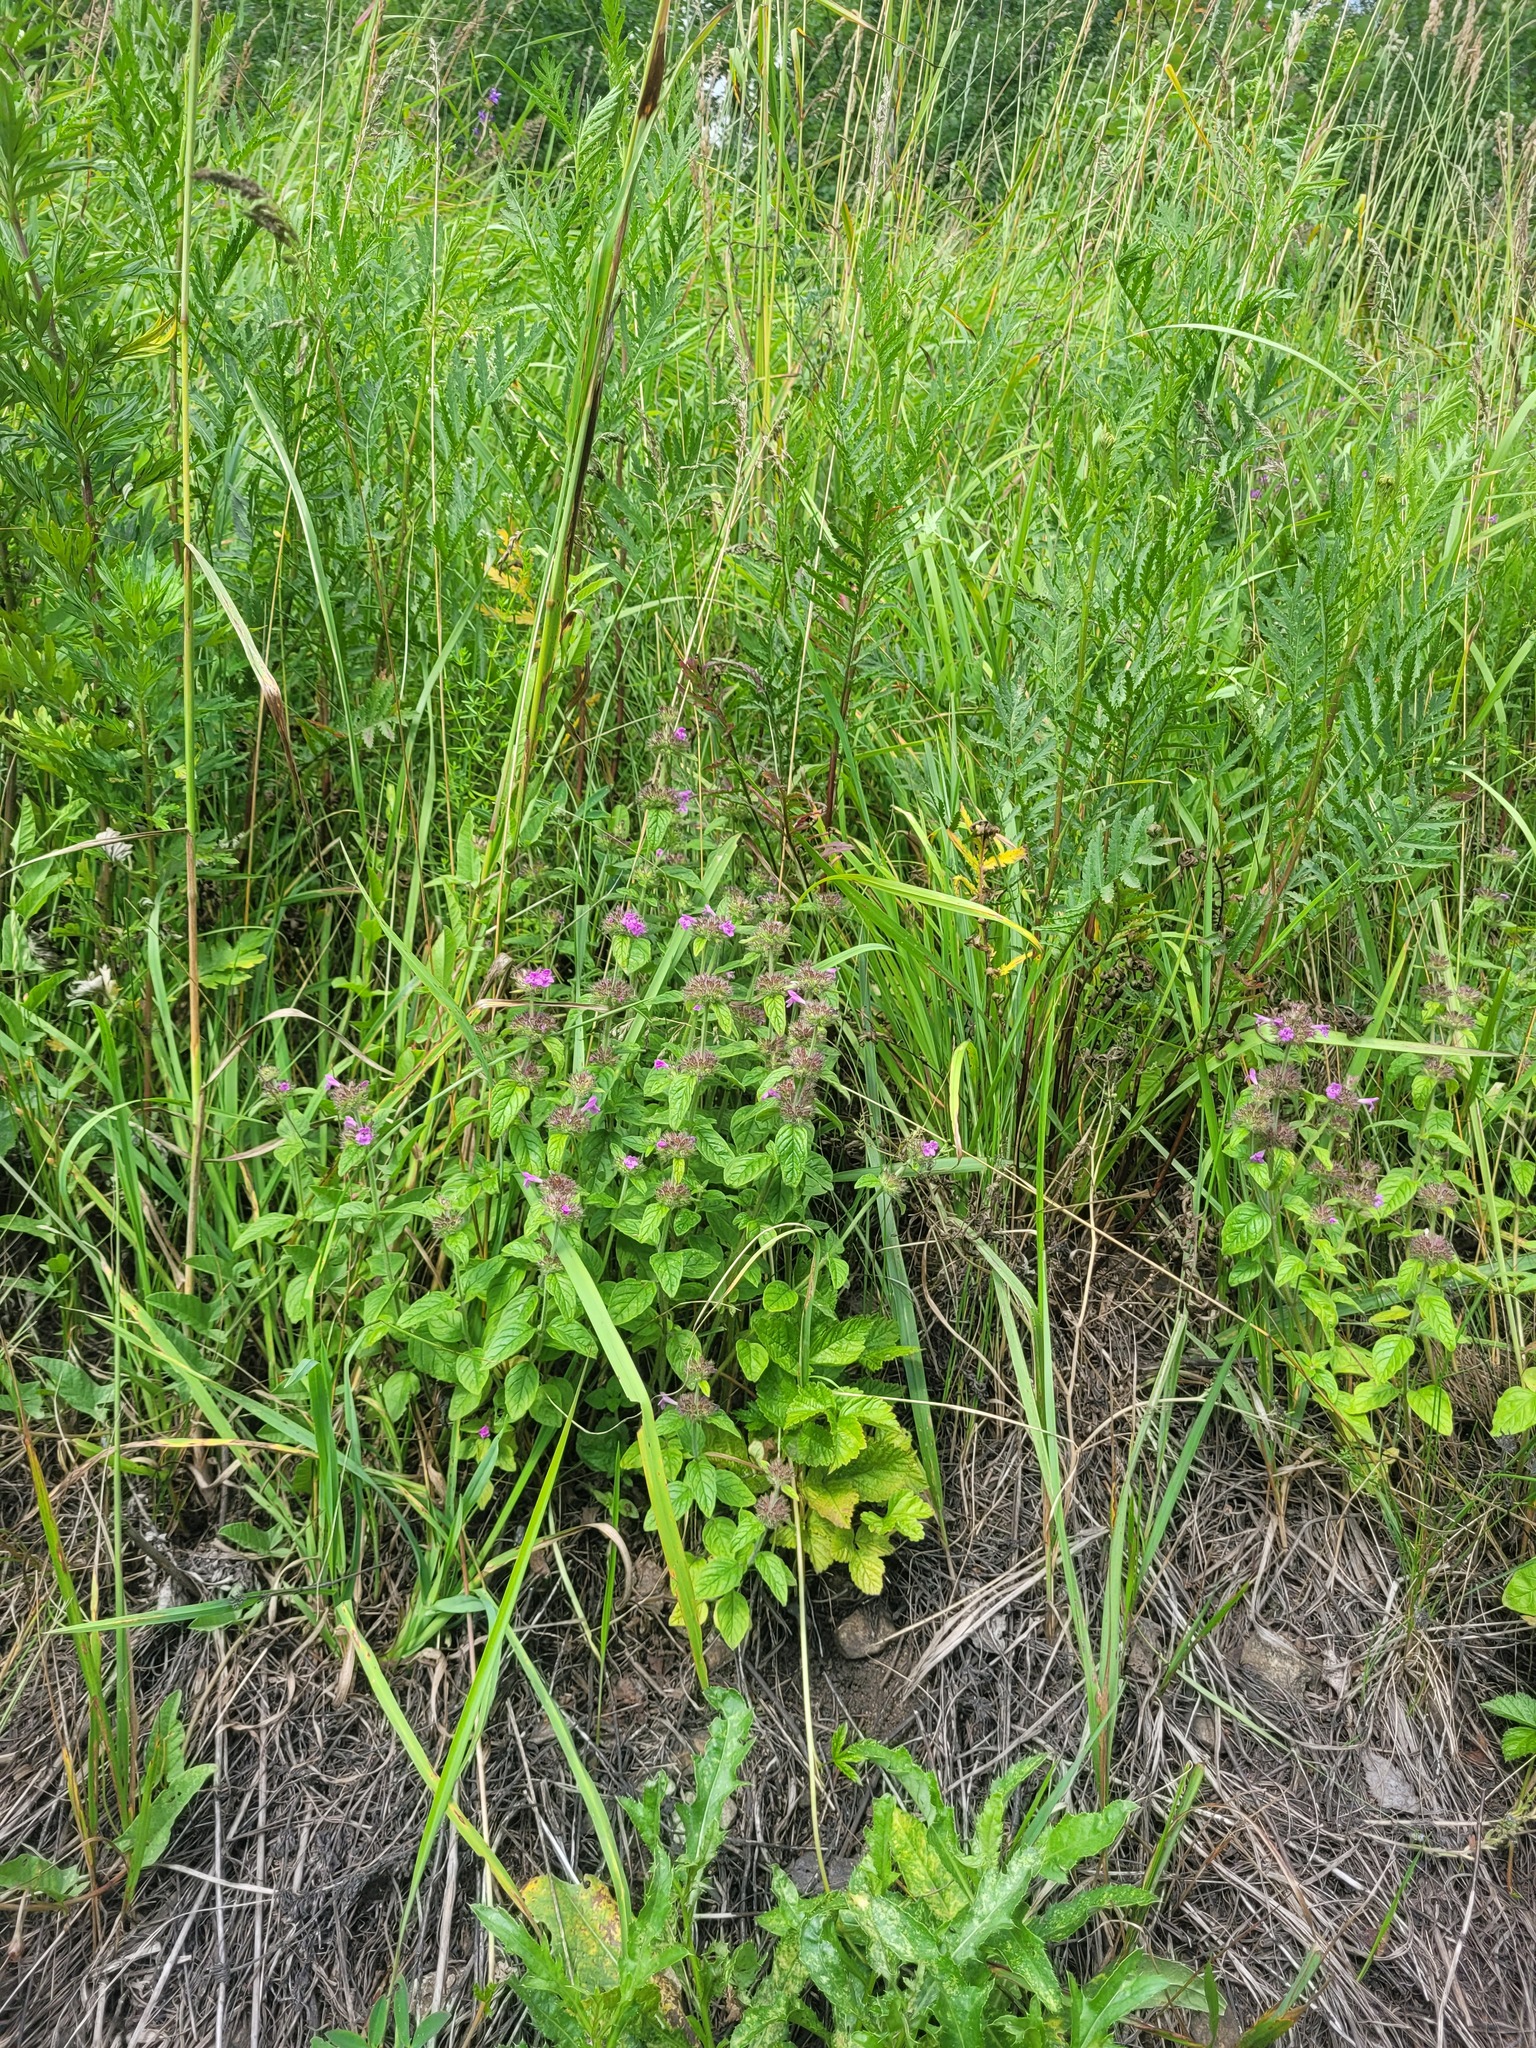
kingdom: Plantae
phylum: Tracheophyta
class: Magnoliopsida
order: Lamiales
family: Lamiaceae
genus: Clinopodium
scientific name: Clinopodium vulgare
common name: Wild basil
